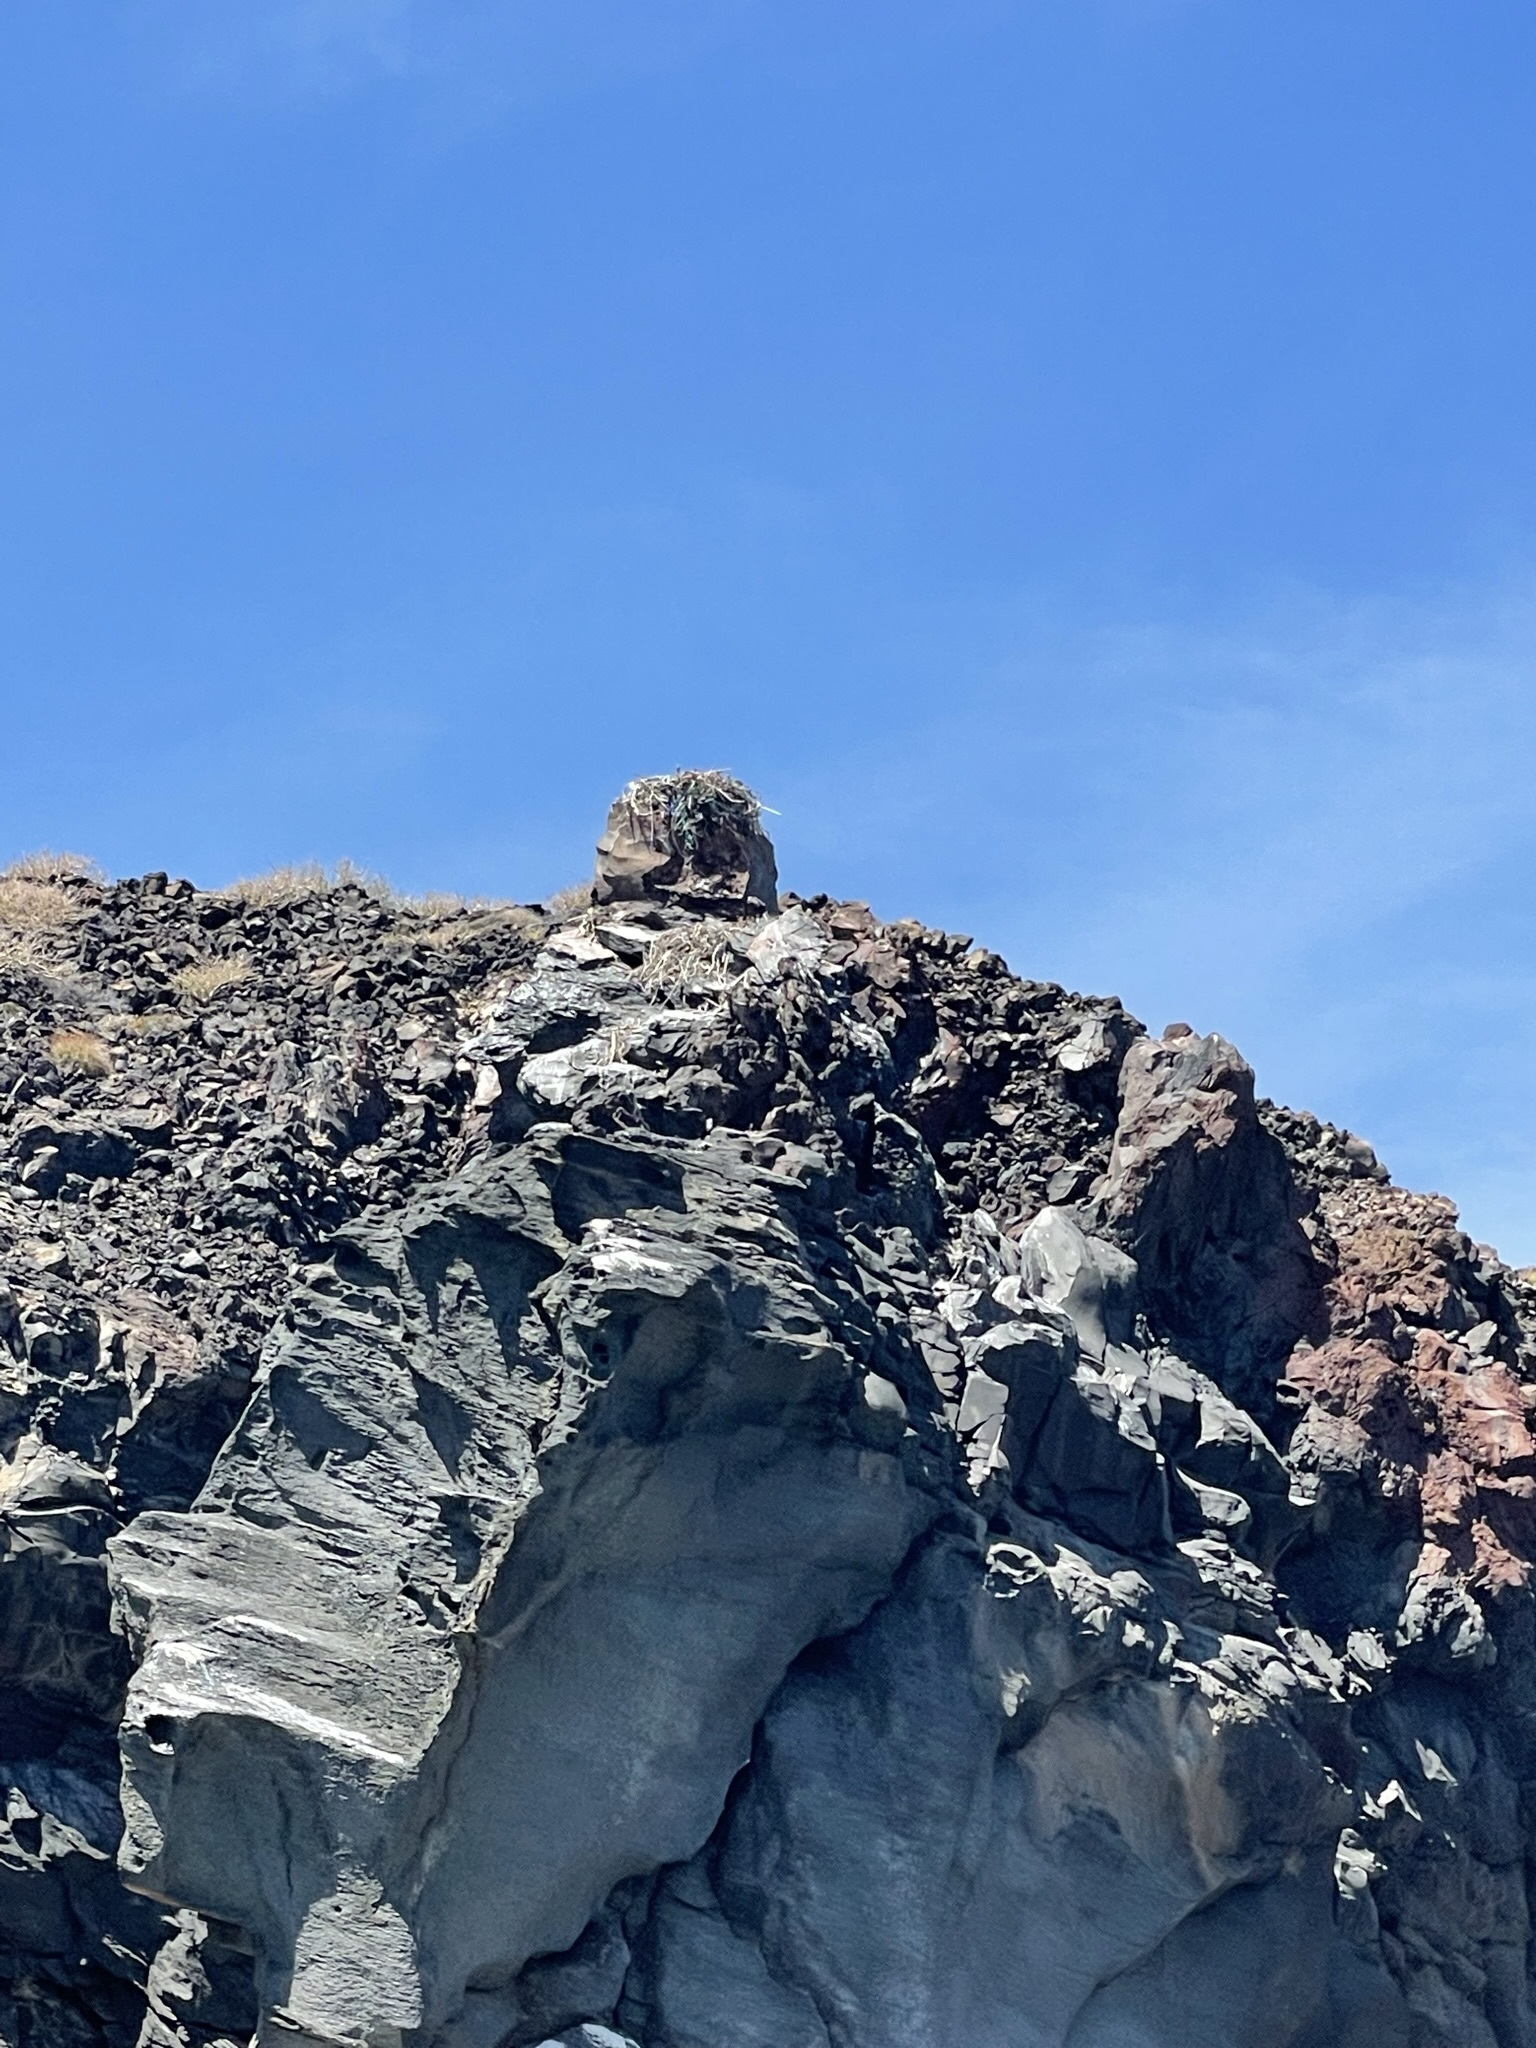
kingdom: Animalia
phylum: Chordata
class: Aves
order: Accipitriformes
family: Pandionidae
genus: Pandion
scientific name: Pandion haliaetus
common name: Osprey
